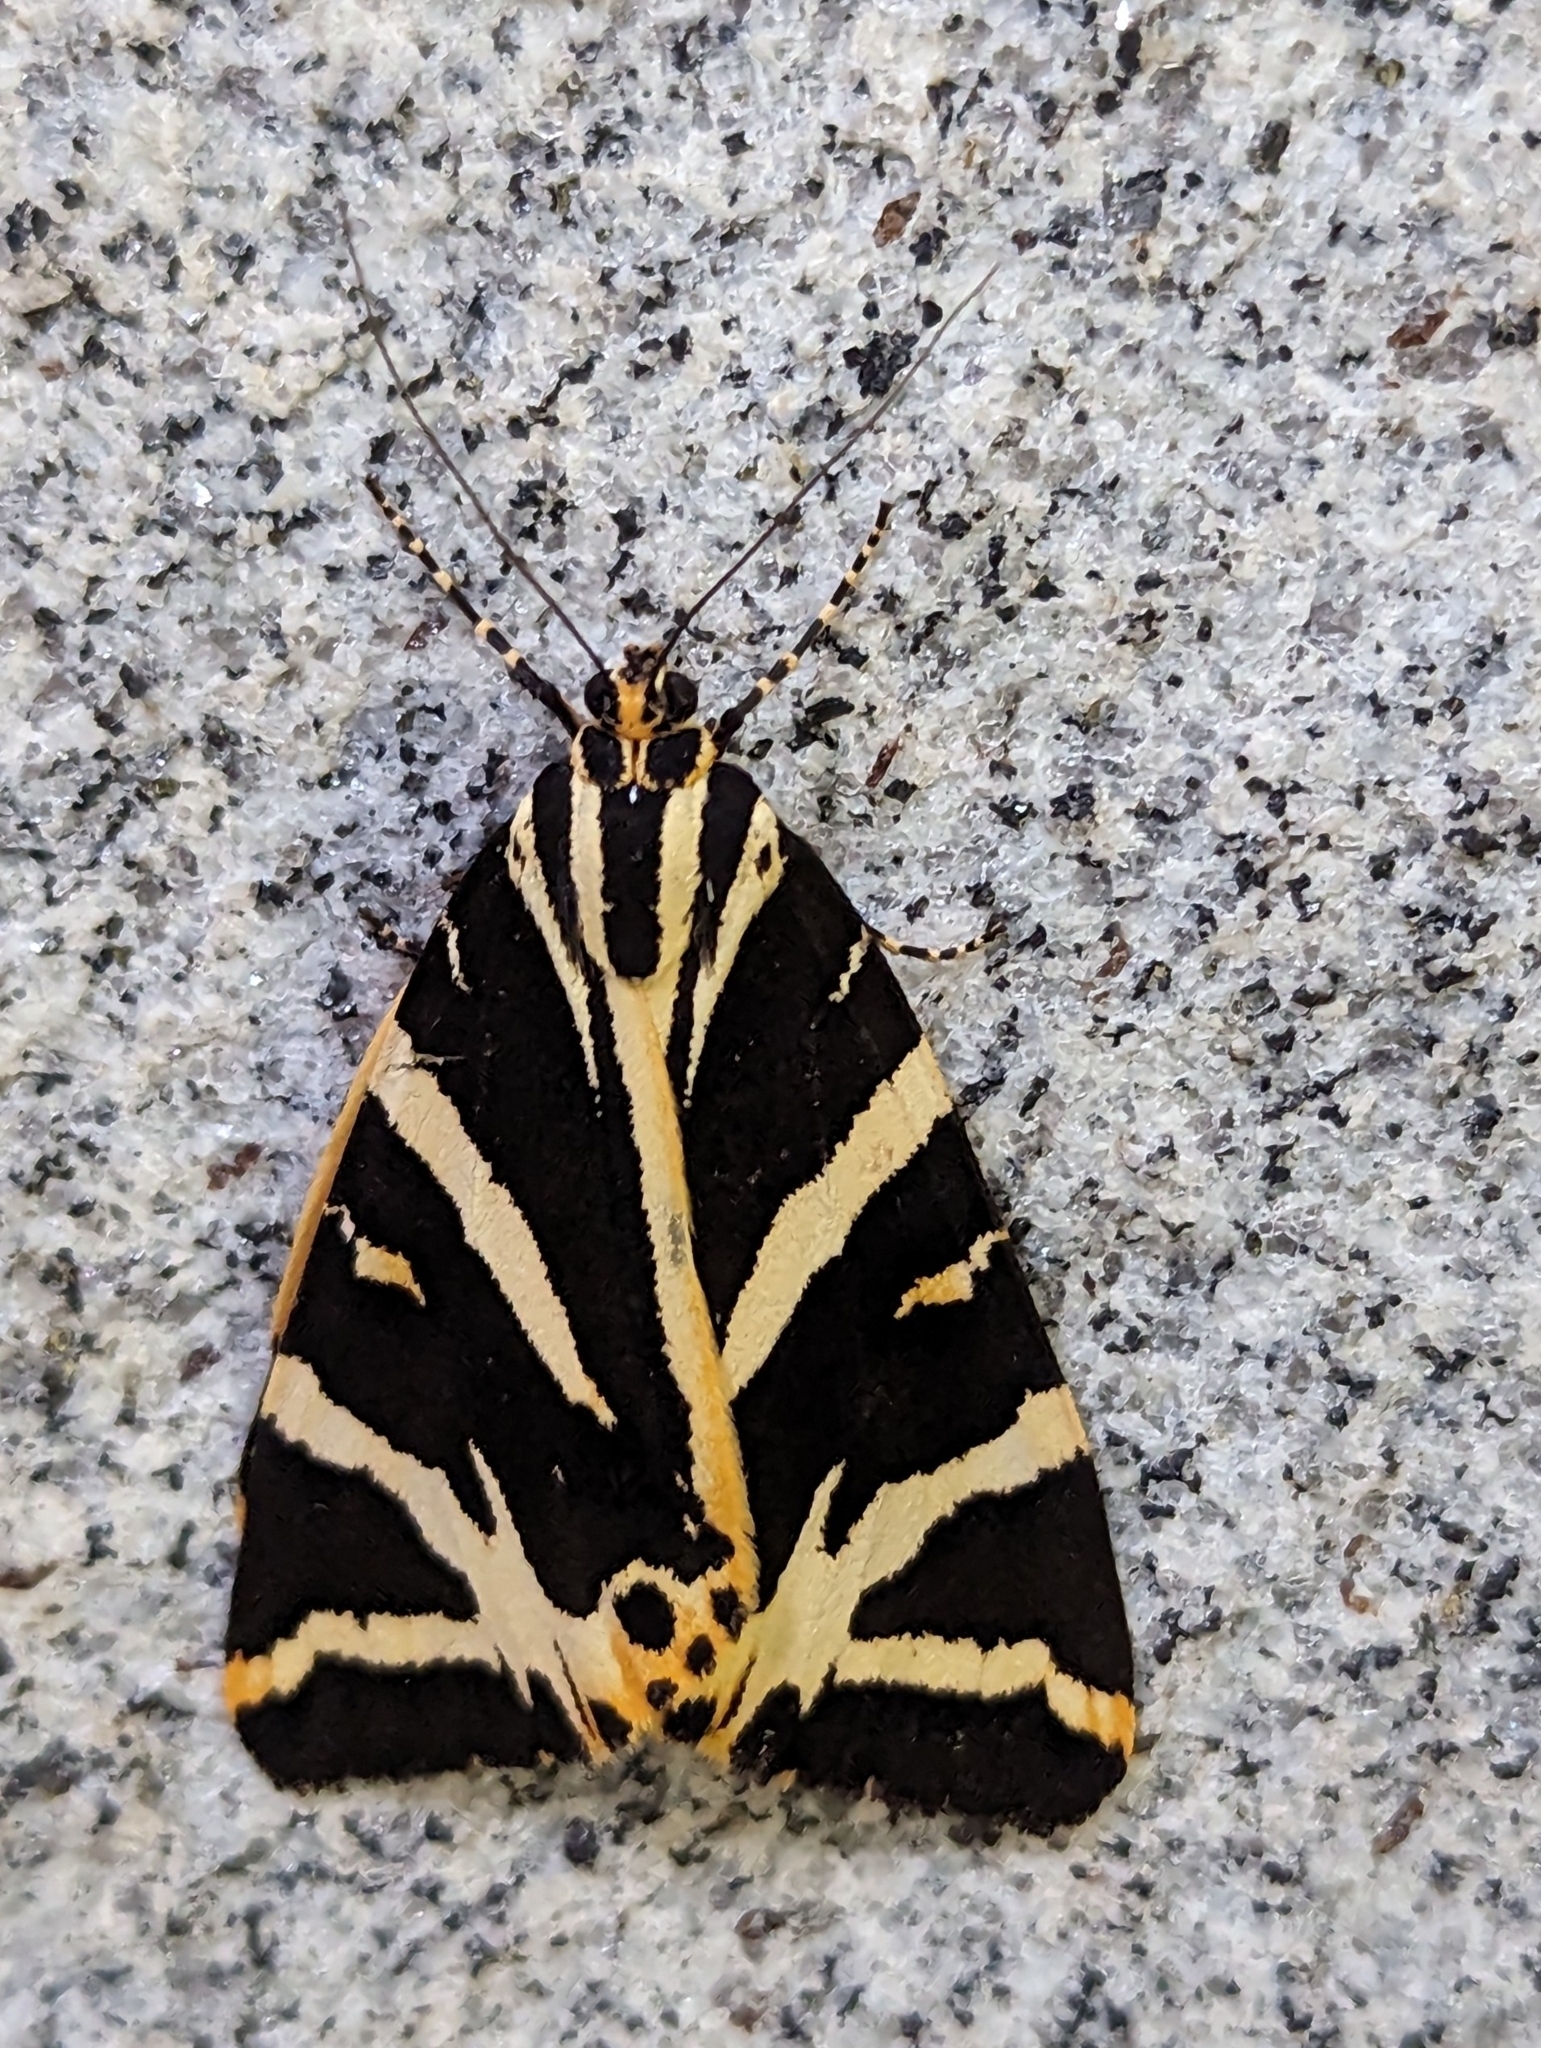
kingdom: Animalia
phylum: Arthropoda
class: Insecta
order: Lepidoptera
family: Erebidae
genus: Euplagia
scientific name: Euplagia quadripunctaria
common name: Jersey tiger
